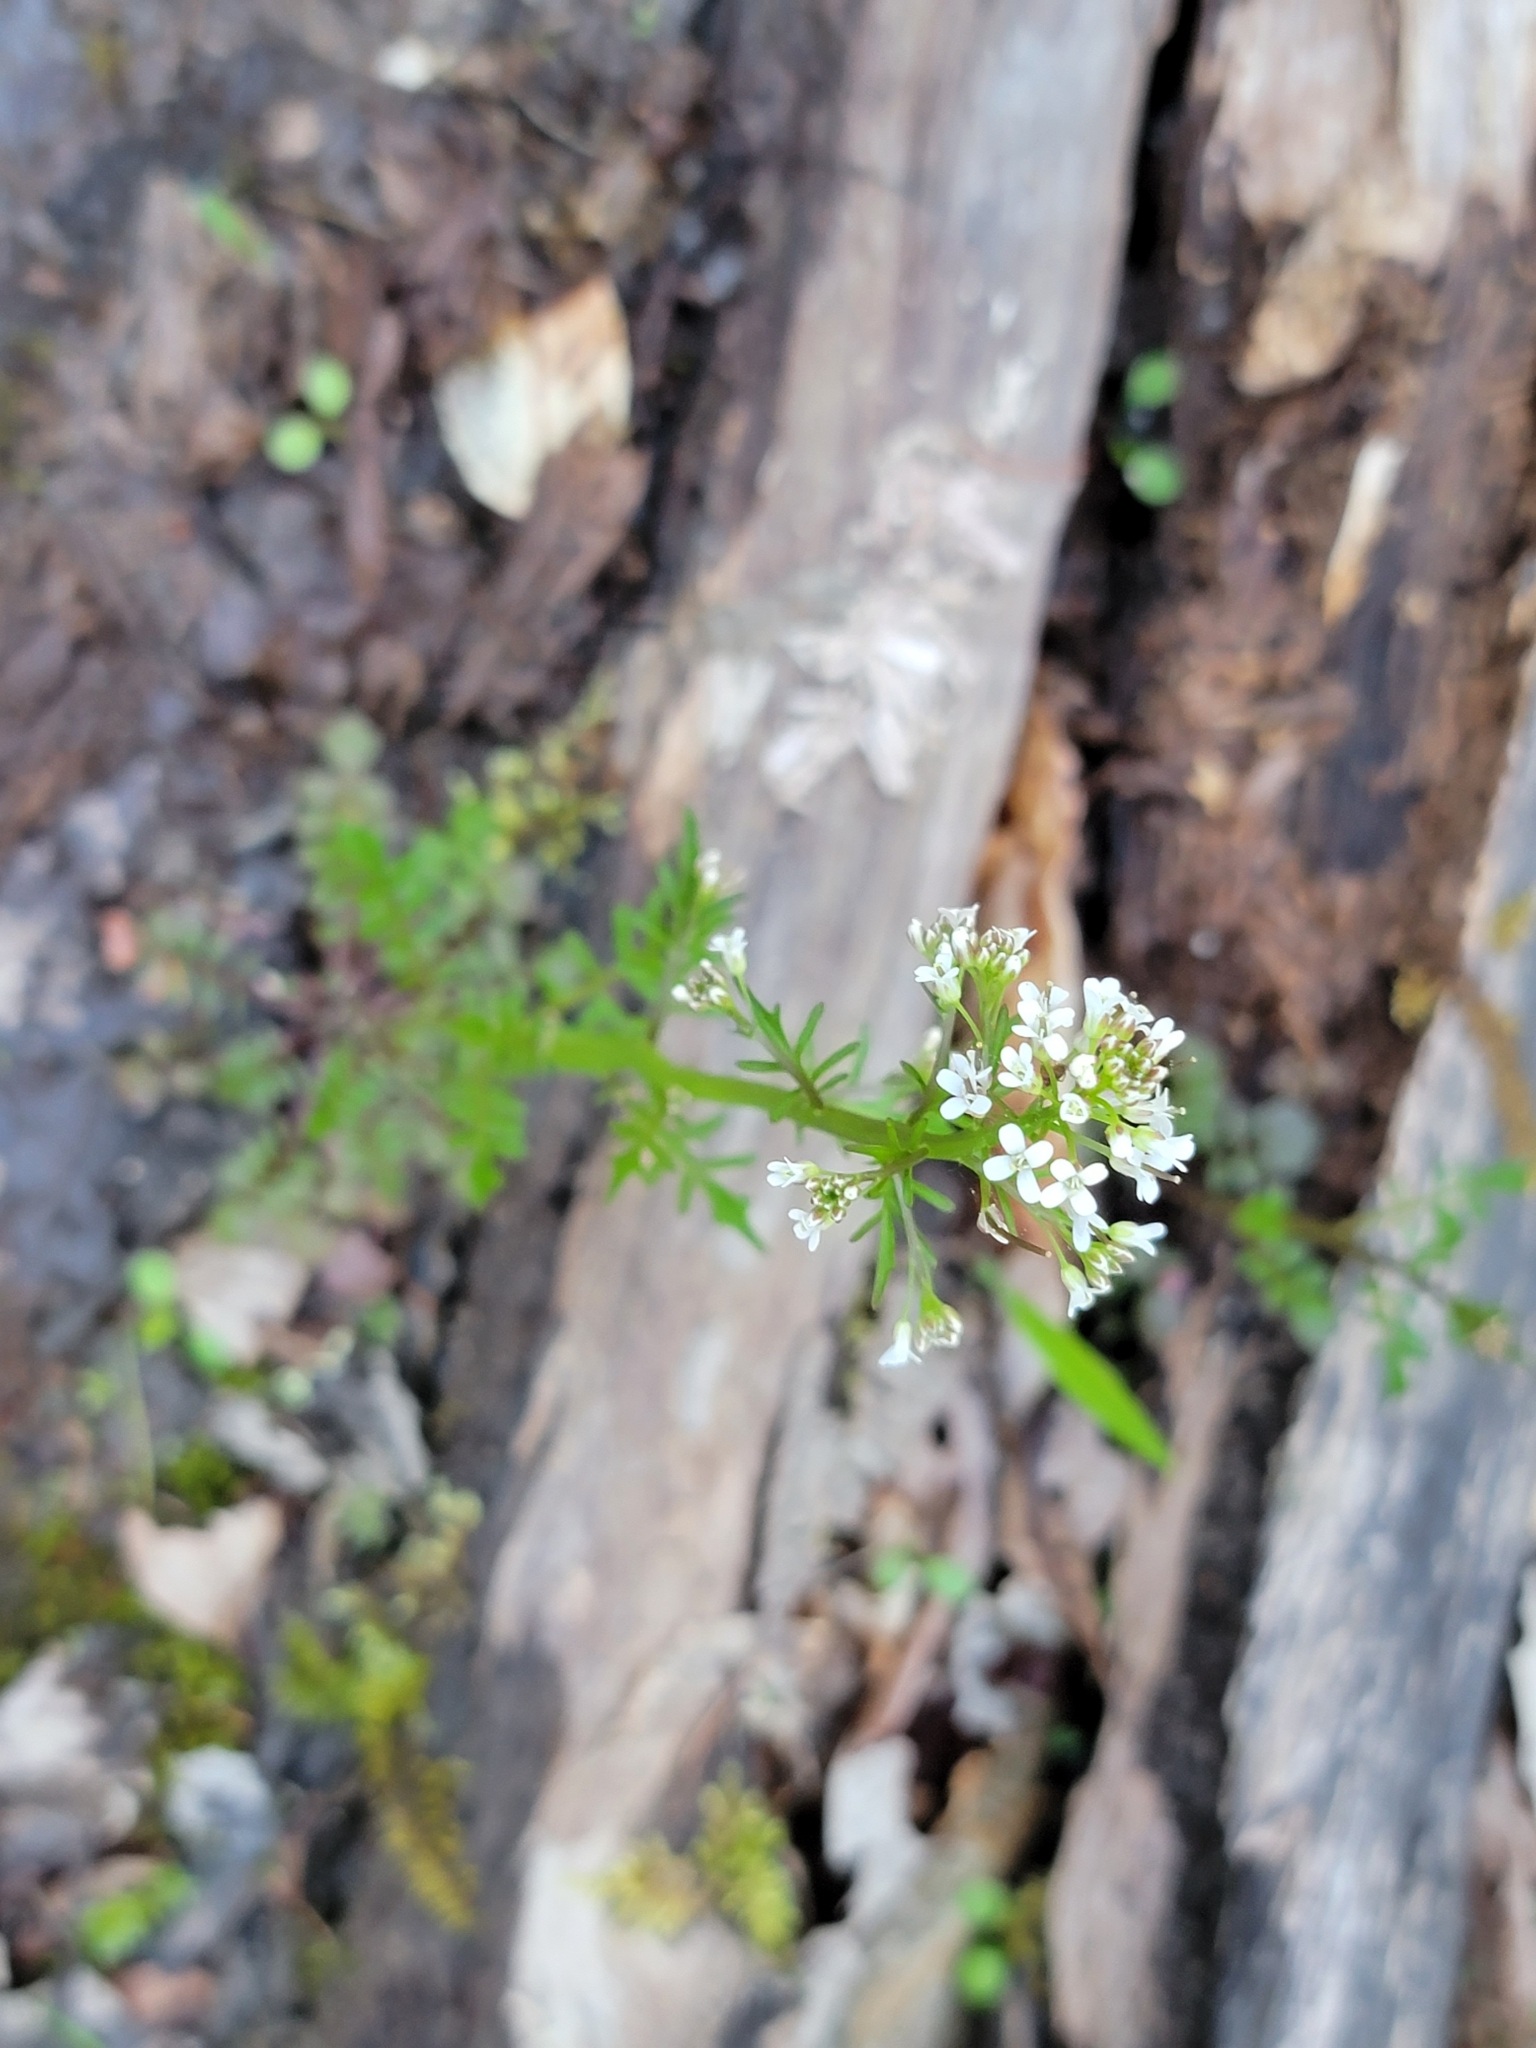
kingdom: Plantae
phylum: Tracheophyta
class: Magnoliopsida
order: Brassicales
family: Brassicaceae
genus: Cardamine
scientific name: Cardamine pensylvanica
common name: Pennsylvania bittercress
